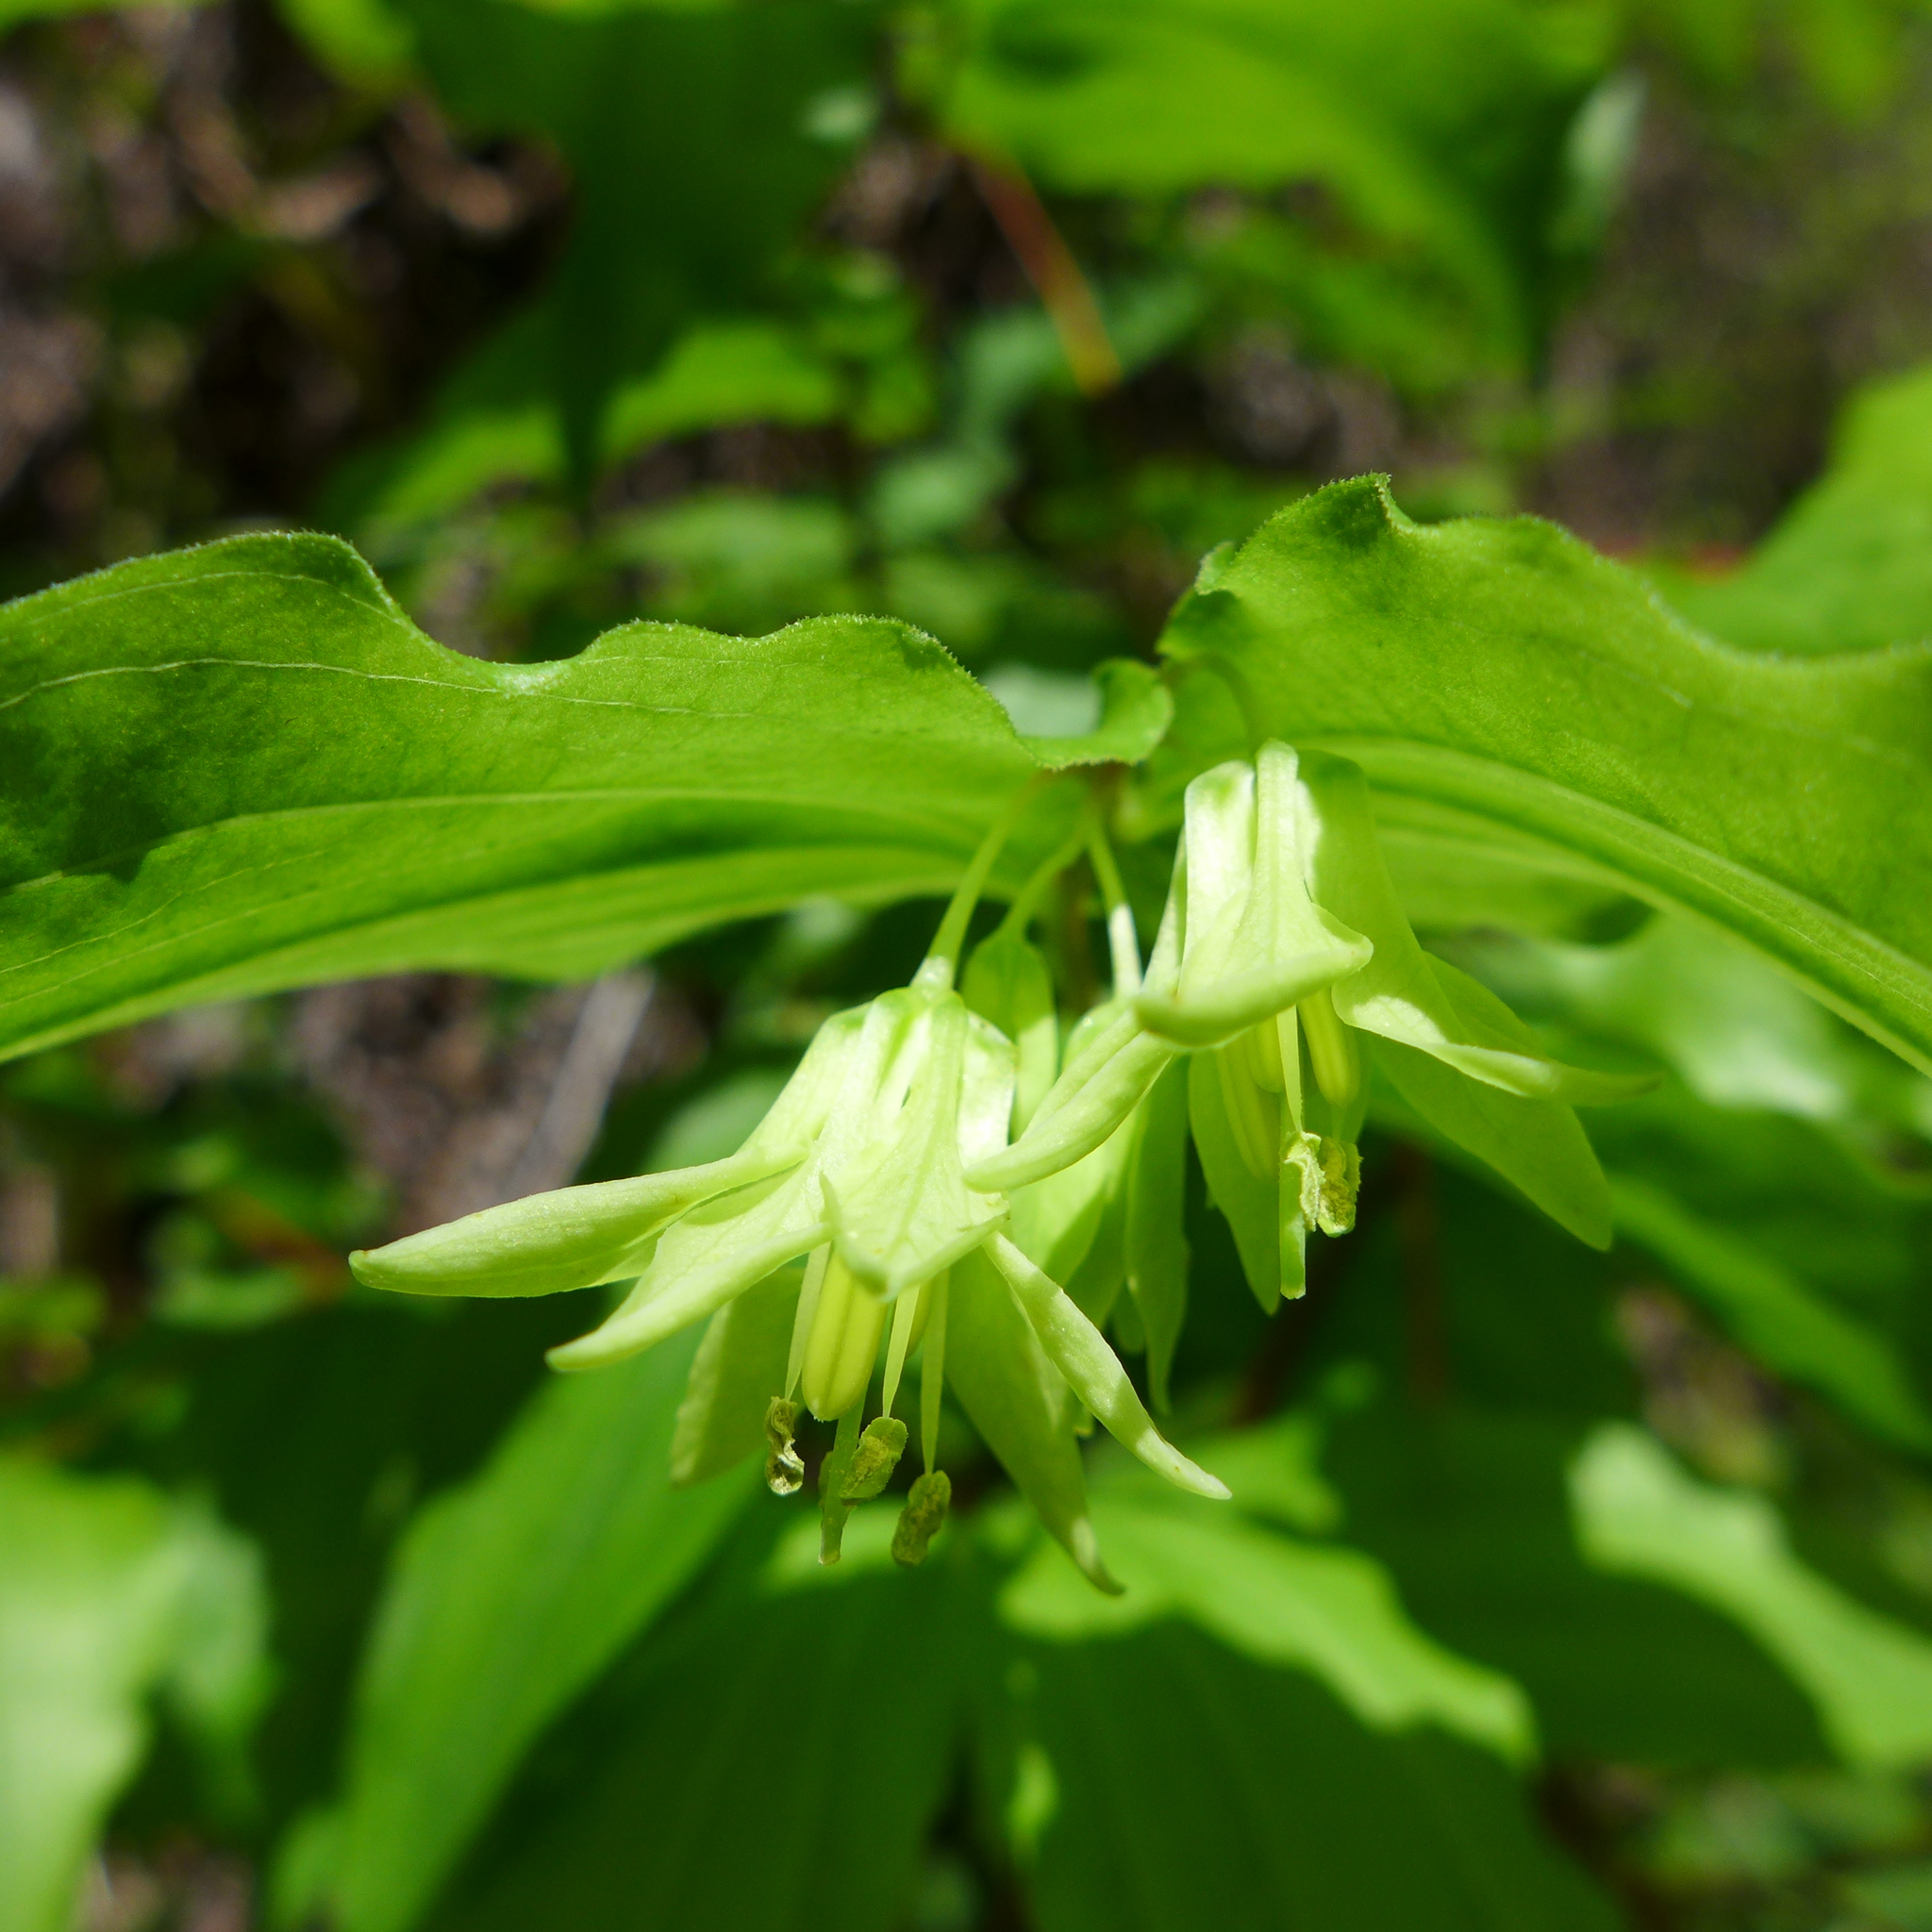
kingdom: Plantae
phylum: Tracheophyta
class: Liliopsida
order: Liliales
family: Liliaceae
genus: Prosartes
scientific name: Prosartes hookeri
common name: Fairy-bells
